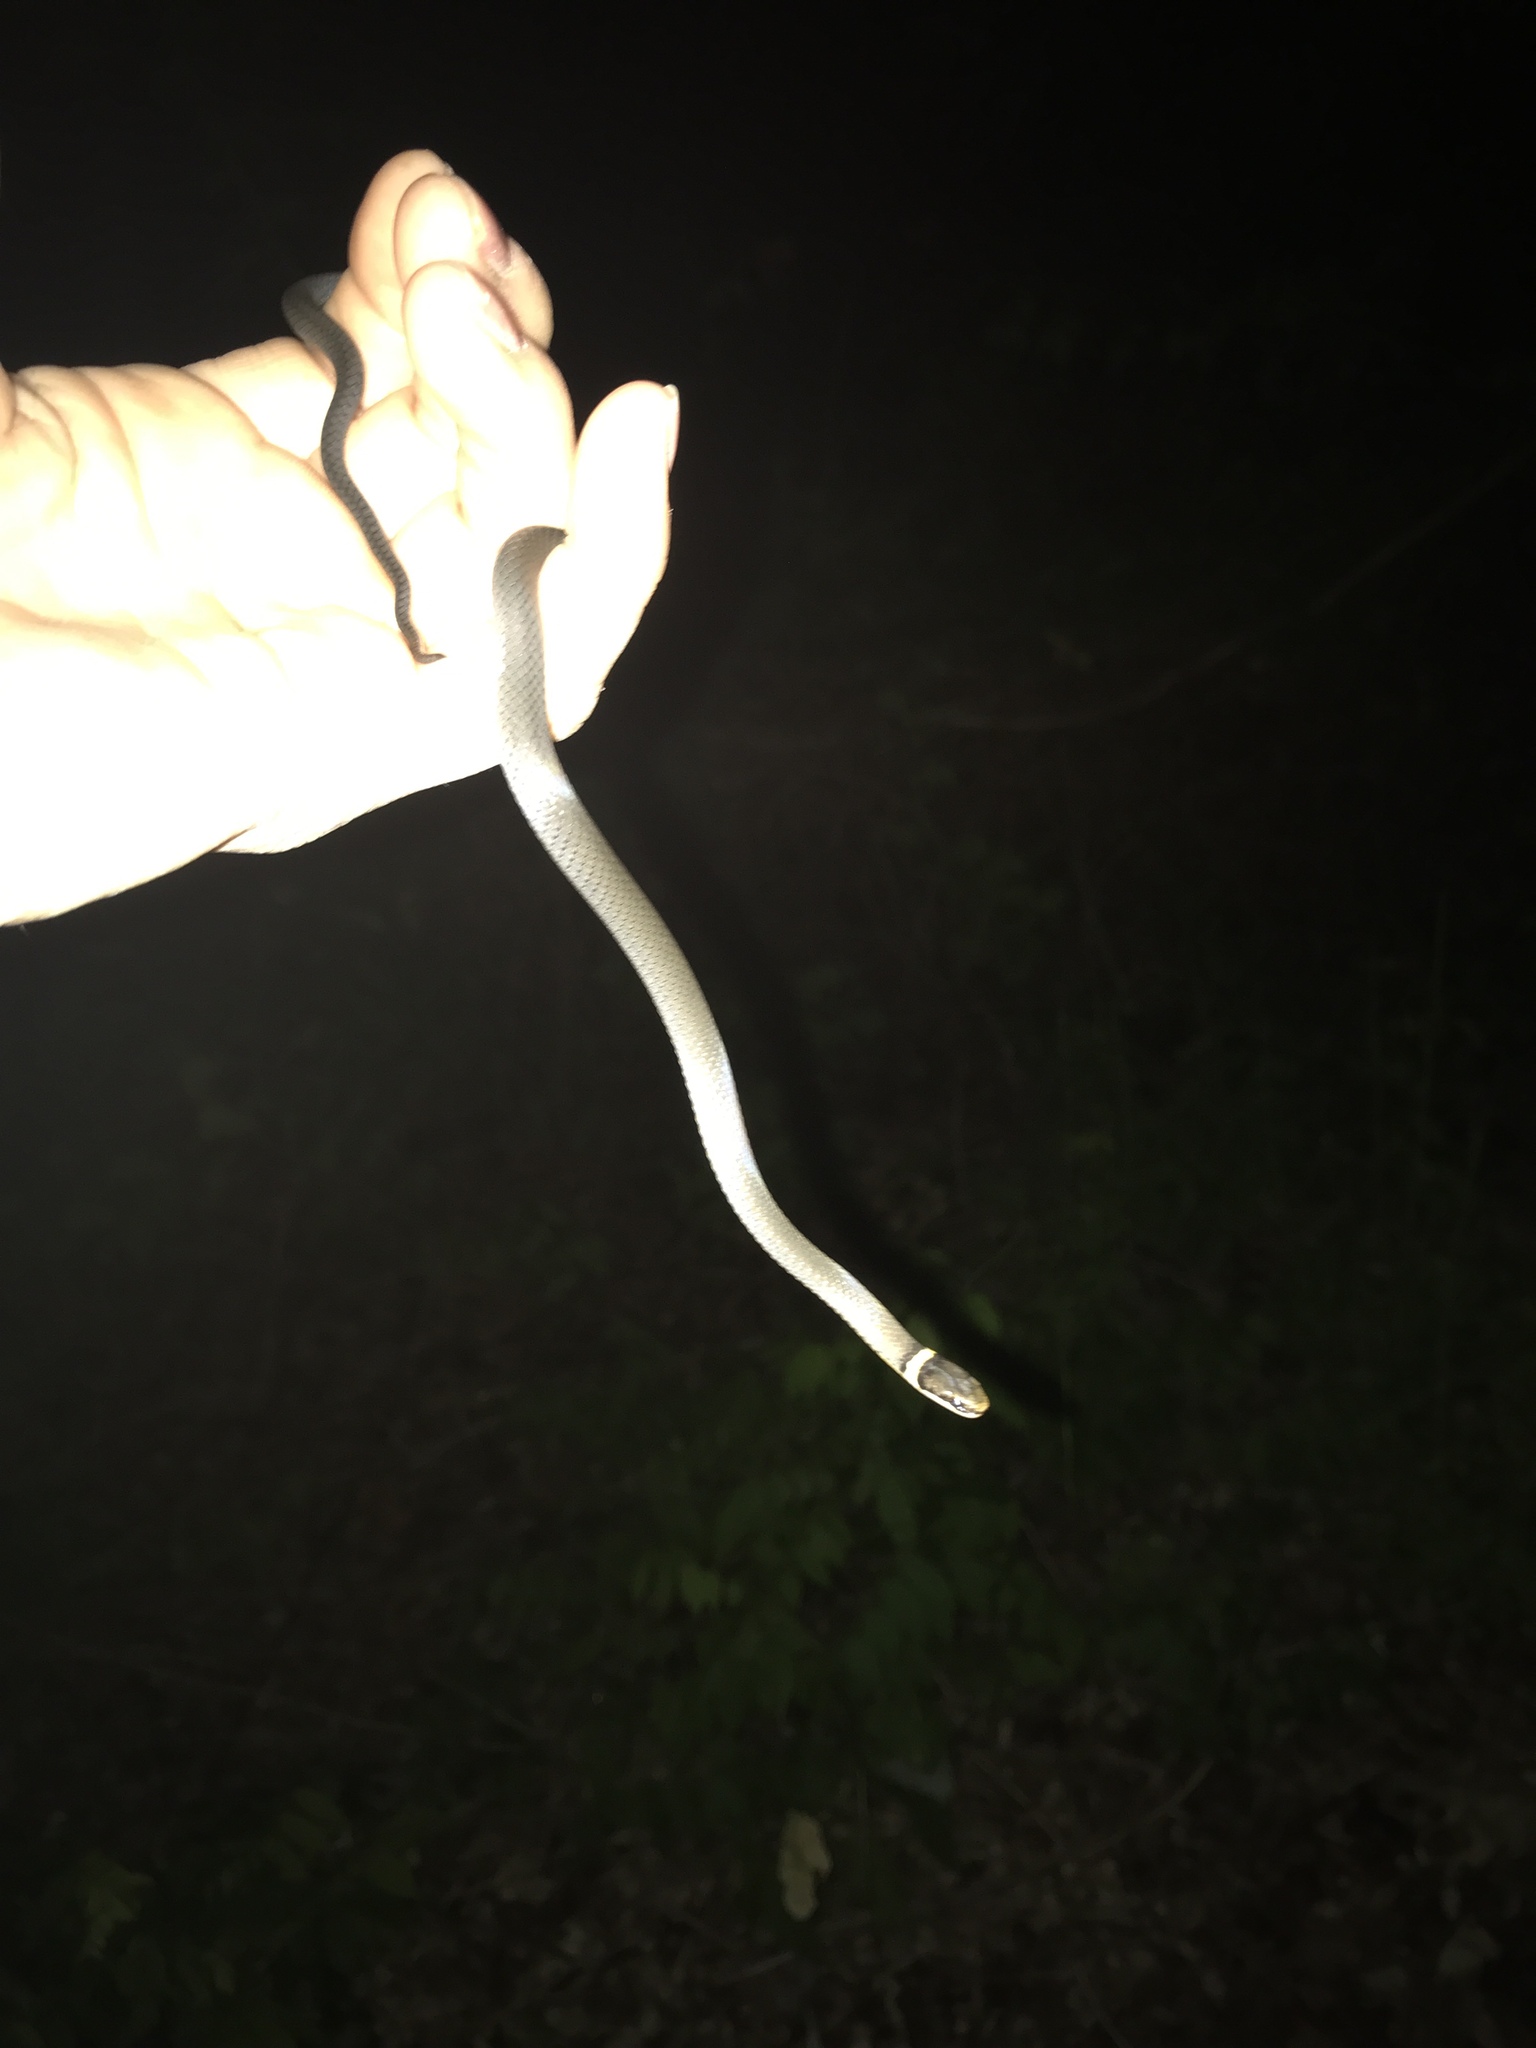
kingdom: Animalia
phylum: Chordata
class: Squamata
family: Colubridae
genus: Diadophis
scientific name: Diadophis punctatus
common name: Ringneck snake
